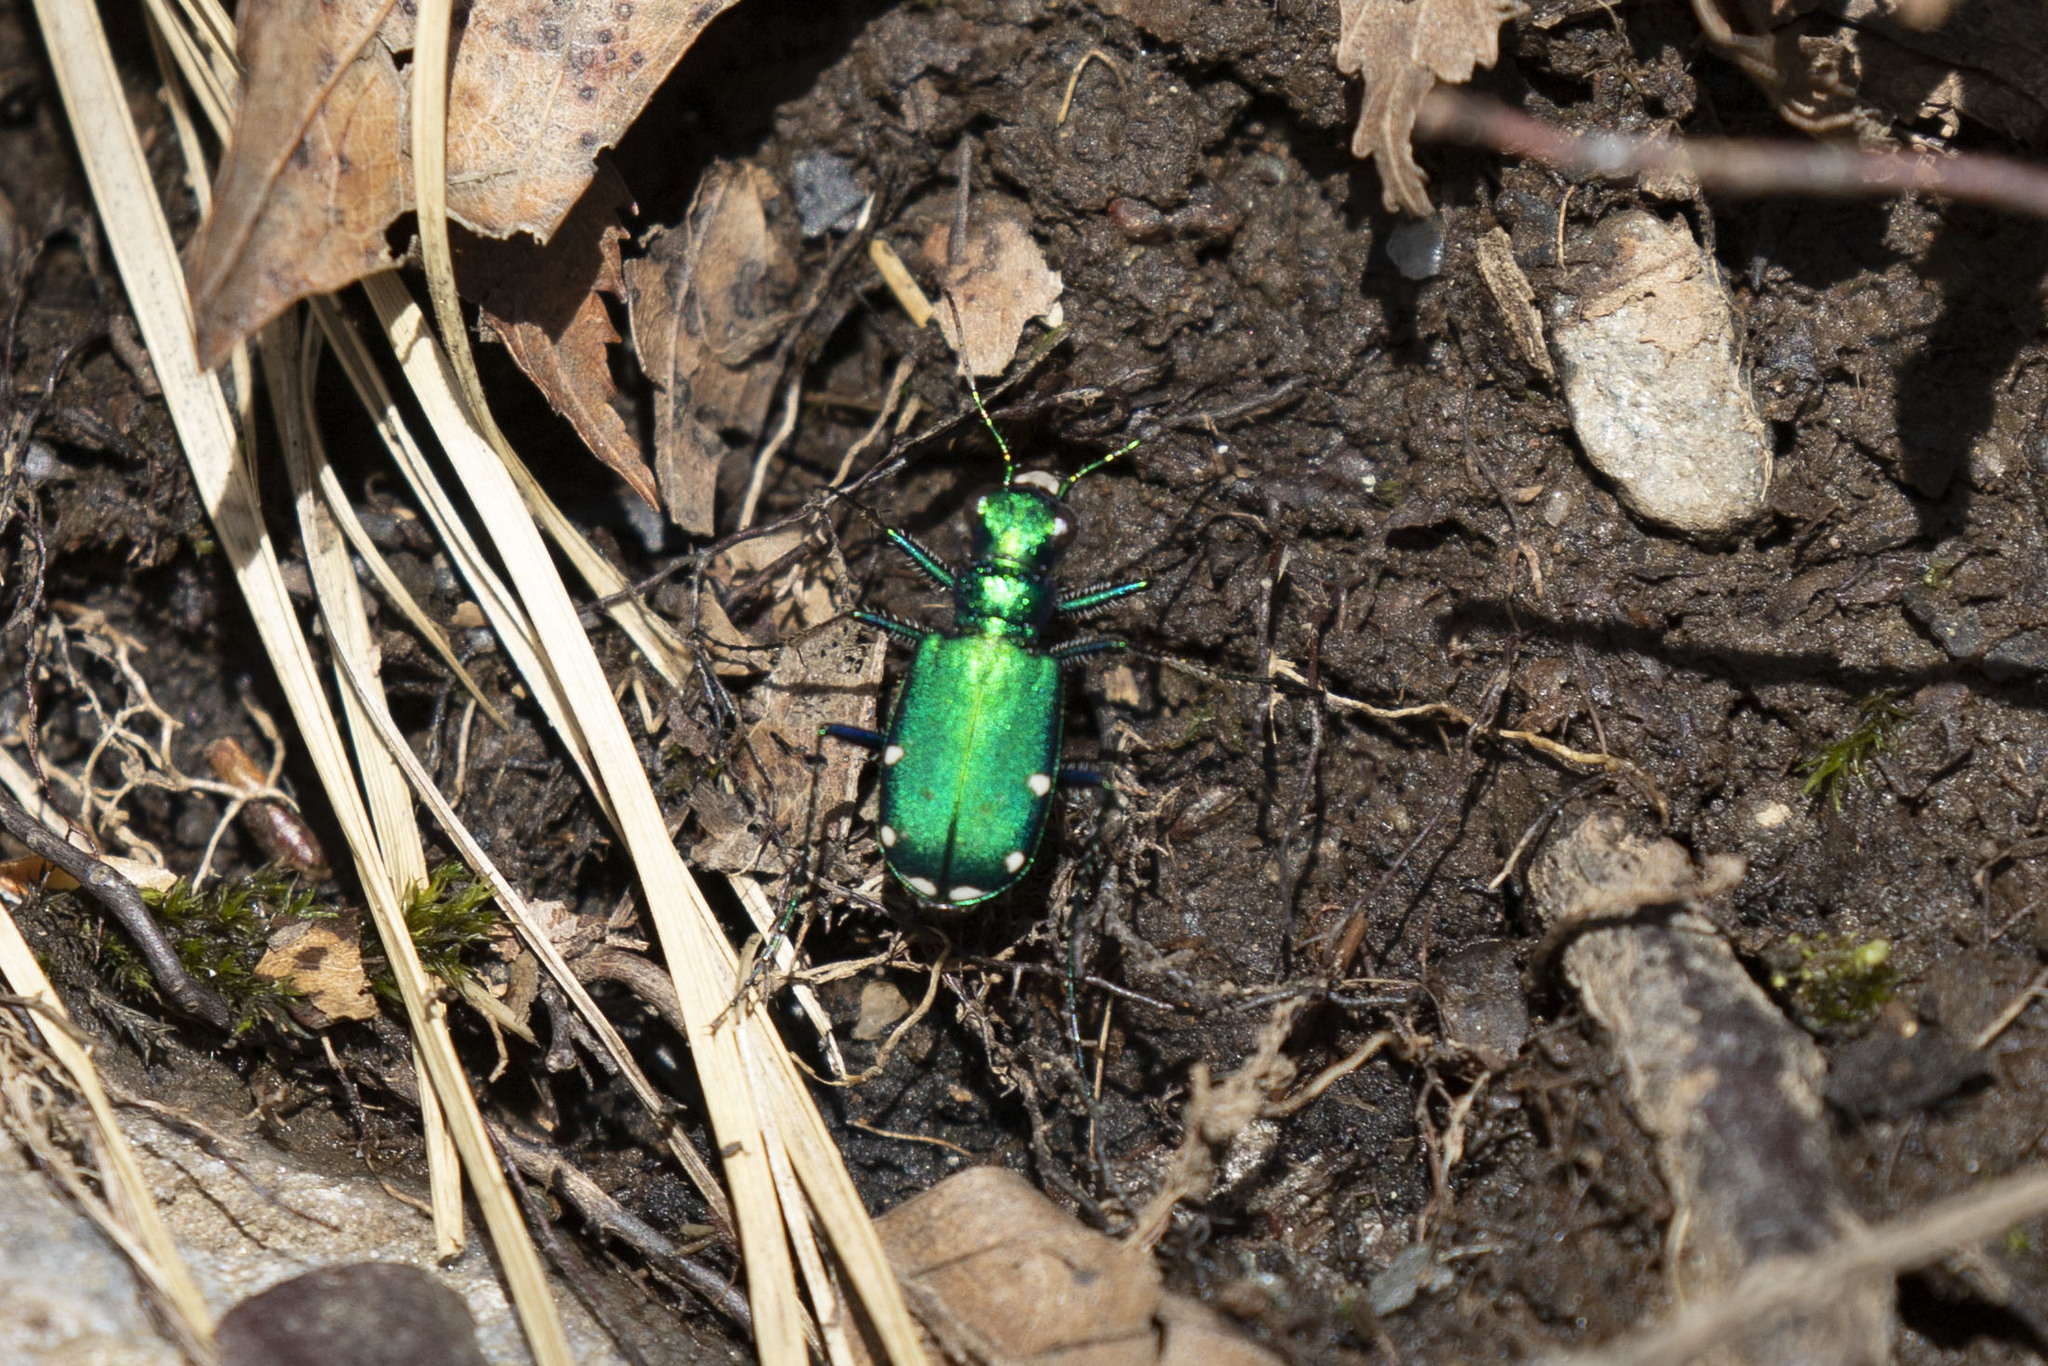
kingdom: Animalia
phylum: Arthropoda
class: Insecta
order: Coleoptera
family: Carabidae
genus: Cicindela
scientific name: Cicindela sexguttata
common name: Six-spotted tiger beetle
